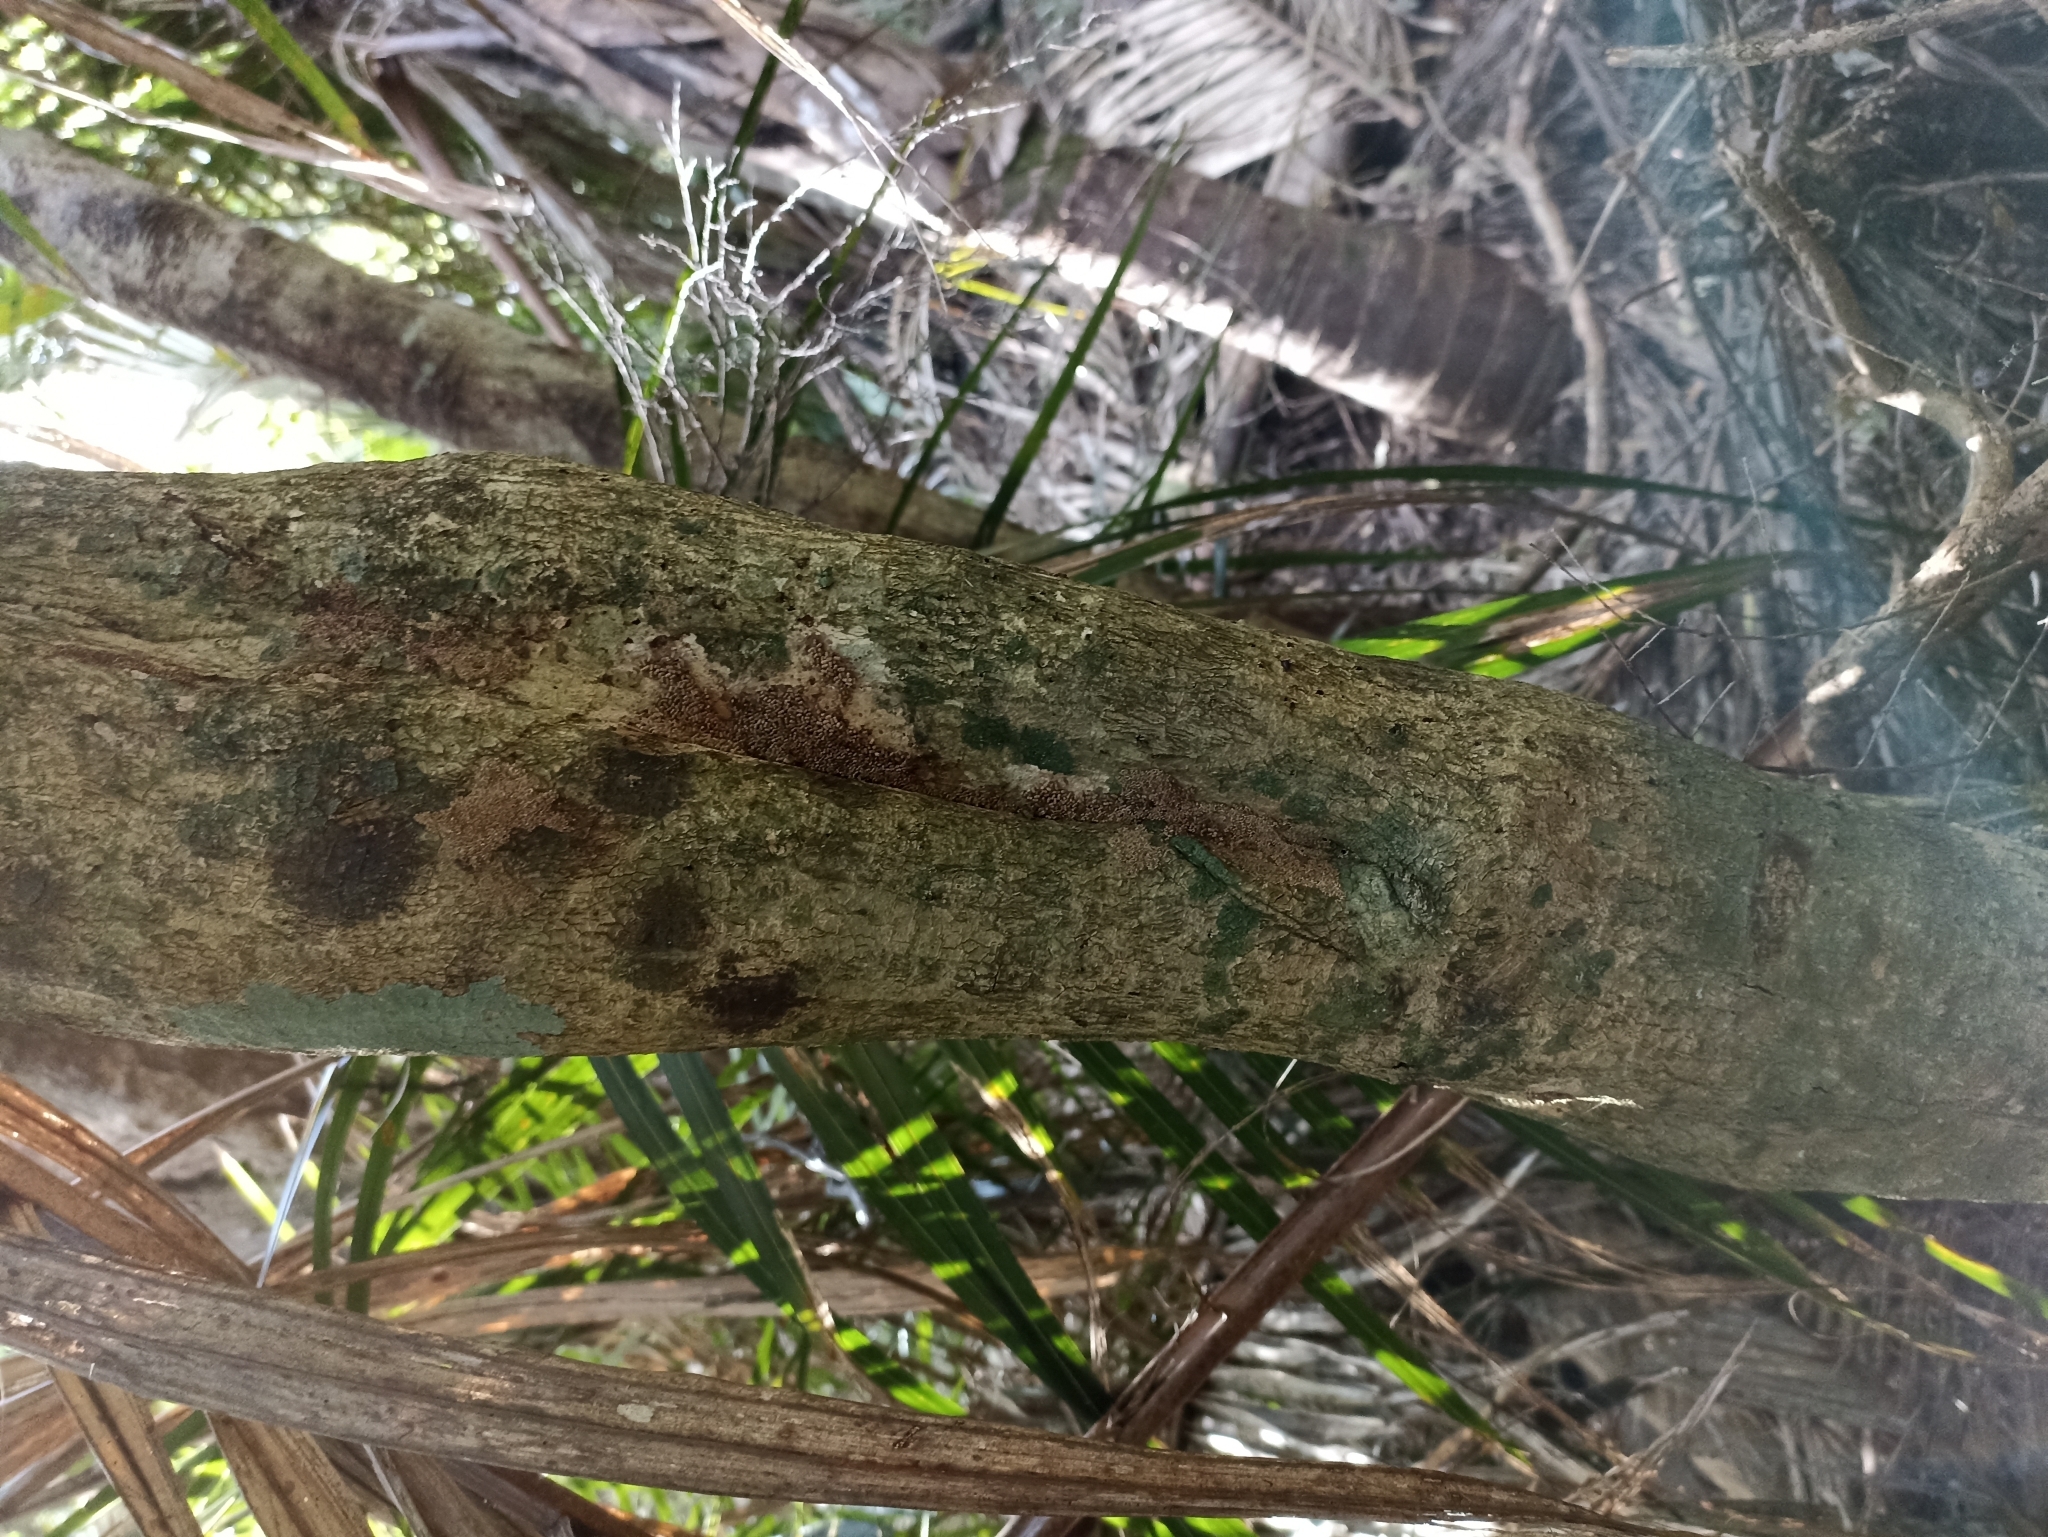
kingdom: Plantae
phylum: Tracheophyta
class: Magnoliopsida
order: Gentianales
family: Rubiaceae
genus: Coprosma
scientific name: Coprosma areolata
